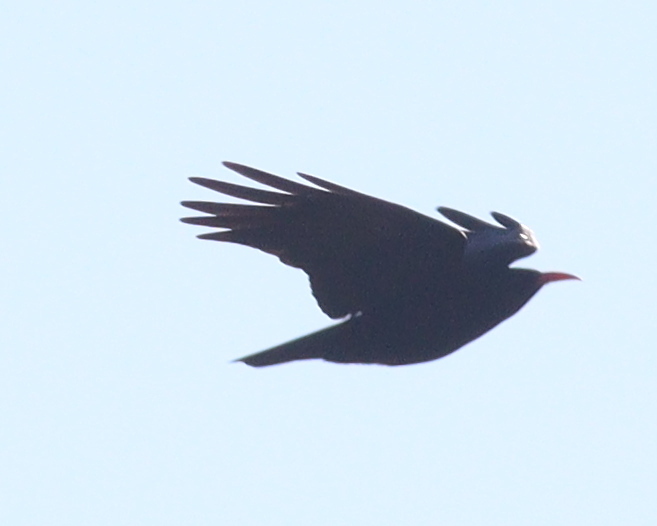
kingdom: Animalia
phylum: Chordata
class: Aves
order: Passeriformes
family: Corvidae
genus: Pyrrhocorax
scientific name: Pyrrhocorax pyrrhocorax
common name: Red-billed chough
